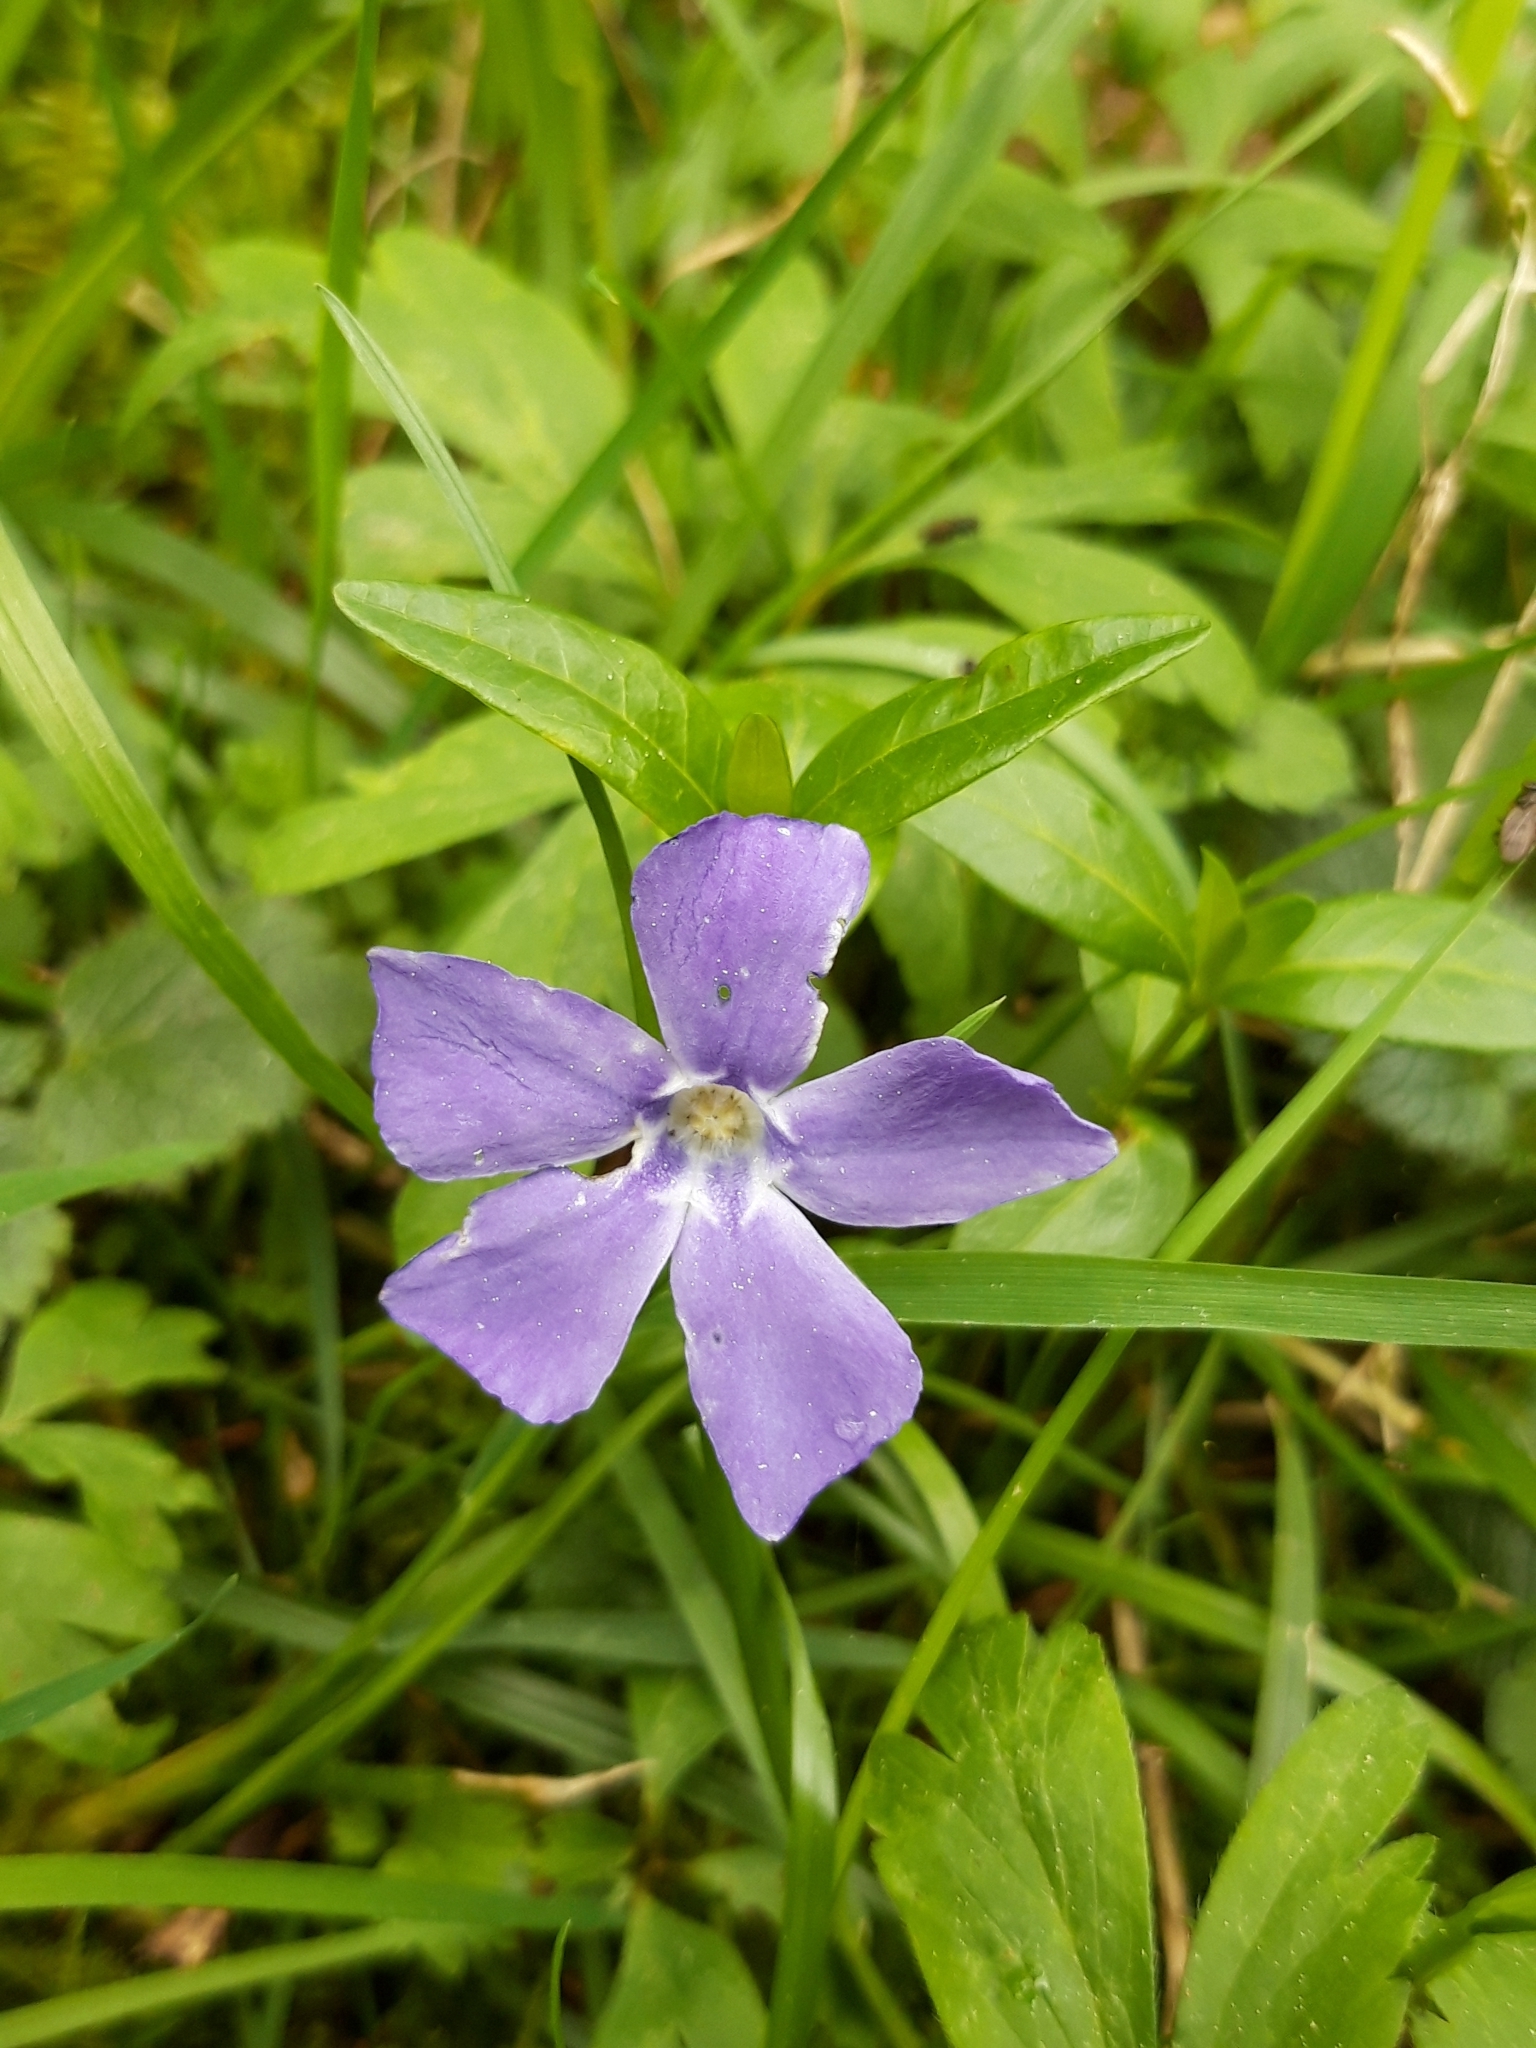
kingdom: Plantae
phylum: Tracheophyta
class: Magnoliopsida
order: Gentianales
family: Apocynaceae
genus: Vinca
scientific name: Vinca minor
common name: Lesser periwinkle
